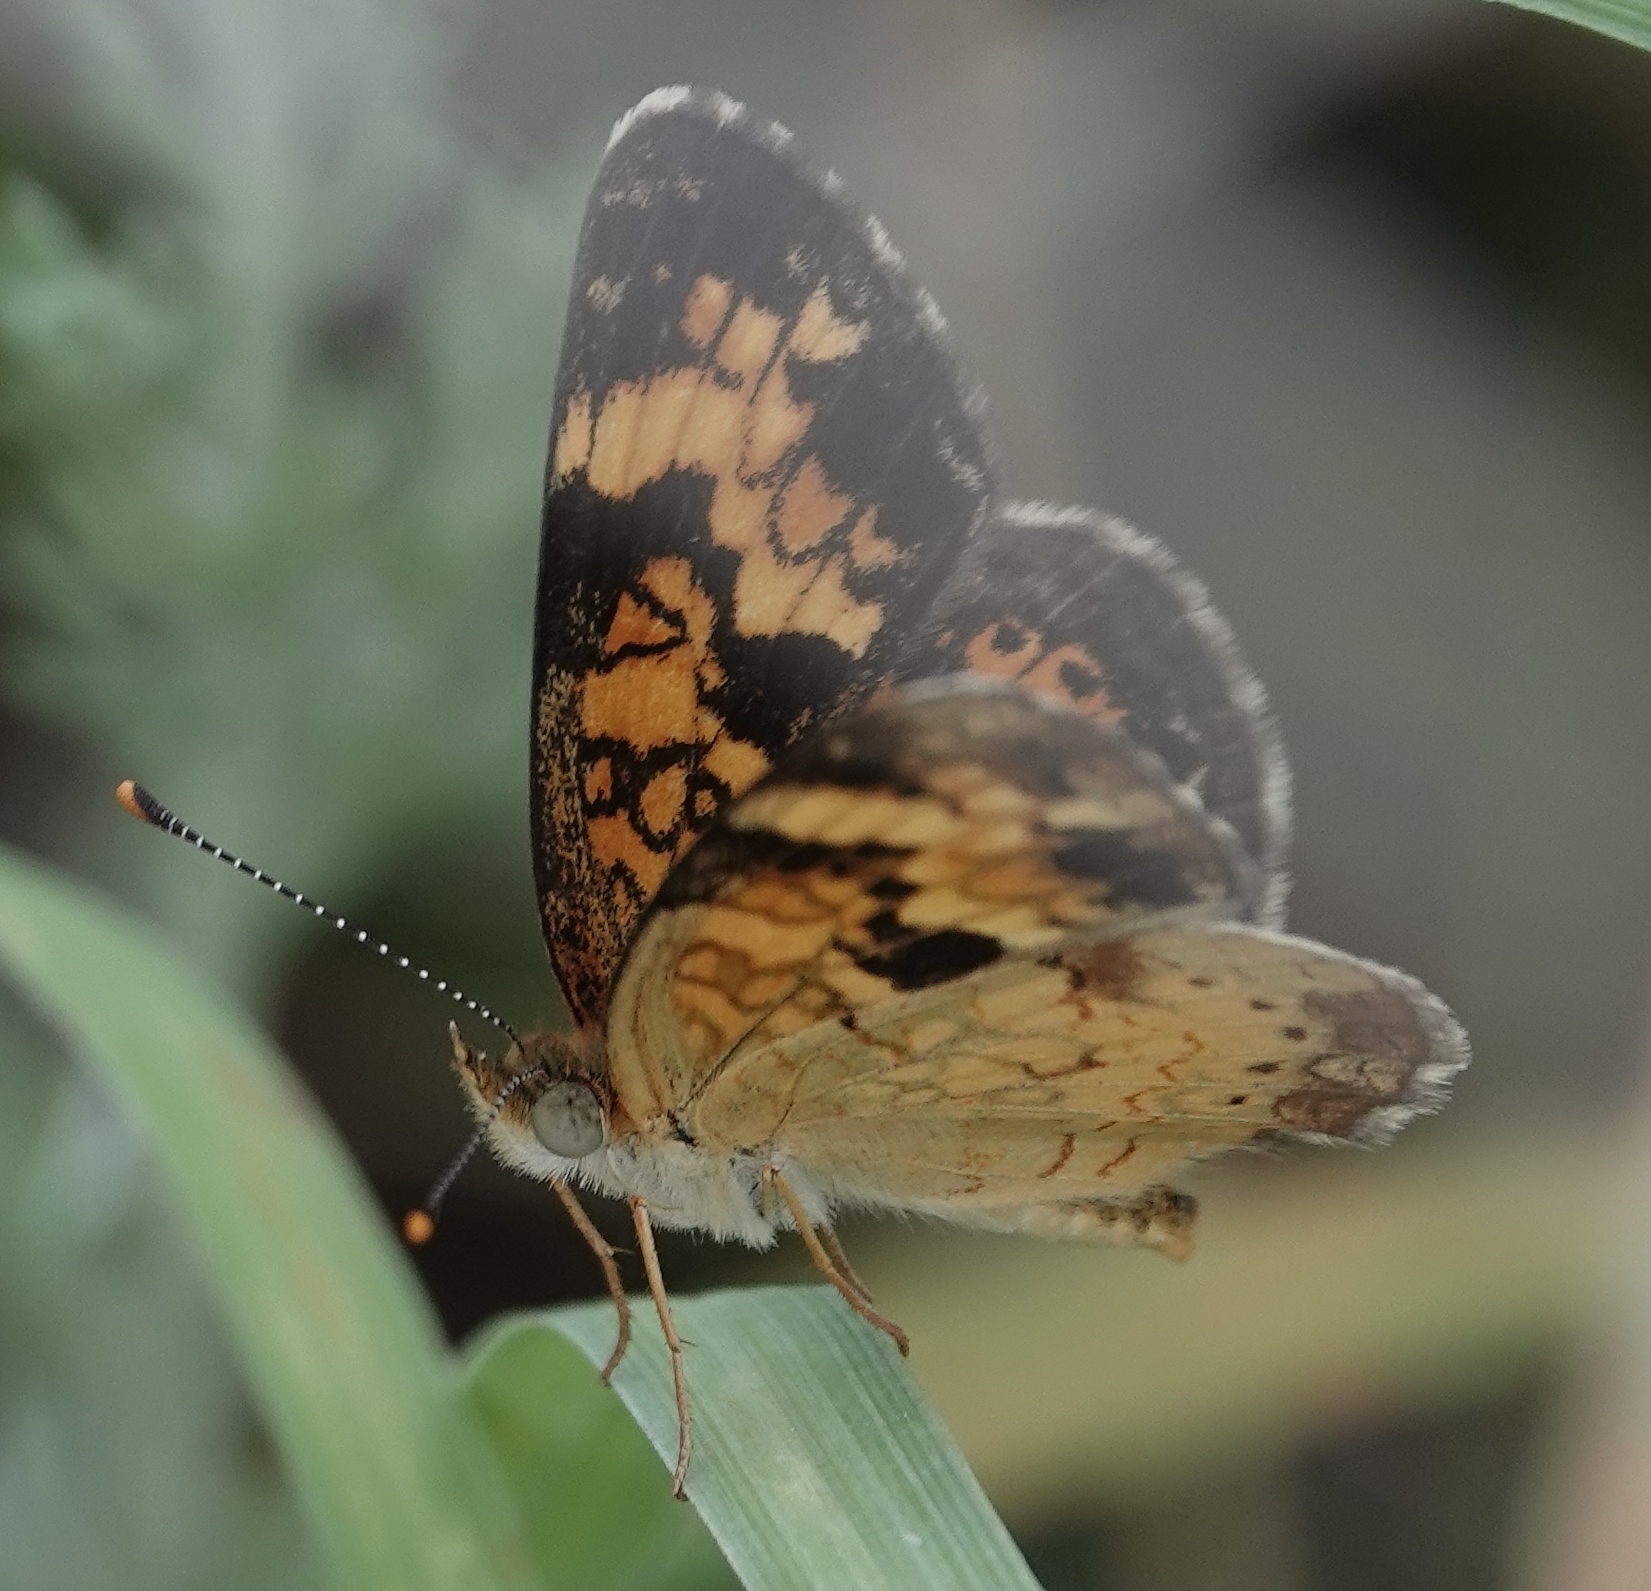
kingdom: Animalia
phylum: Arthropoda
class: Insecta
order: Lepidoptera
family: Nymphalidae
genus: Phyciodes
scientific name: Phyciodes tharos
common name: Pearl crescent
